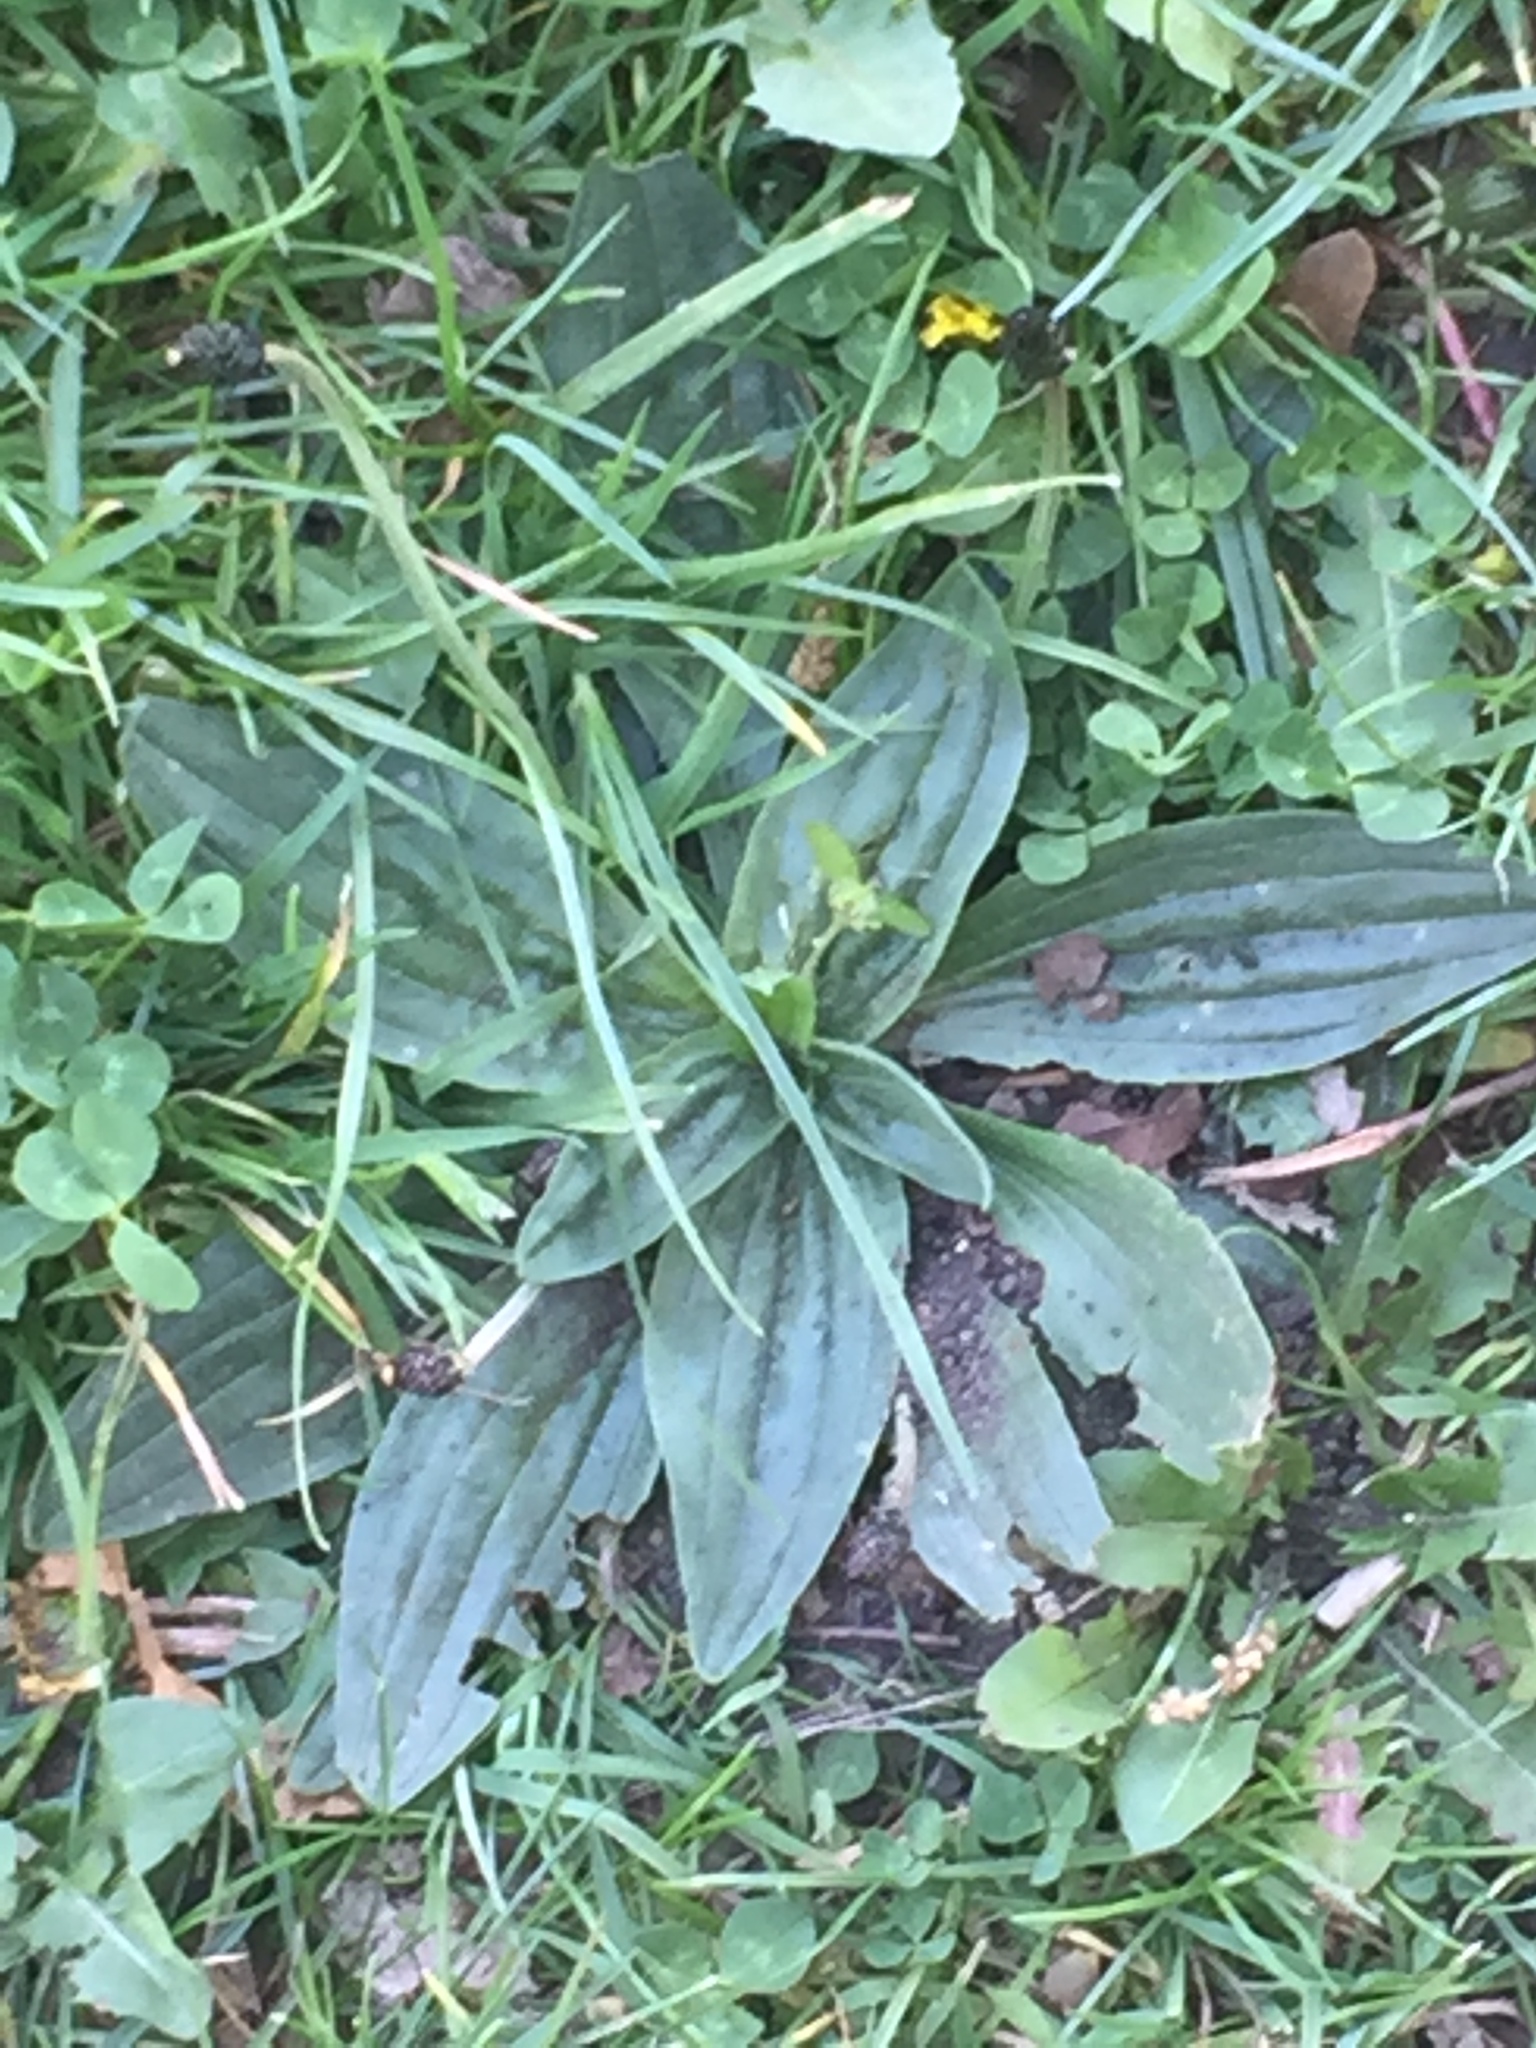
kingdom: Plantae
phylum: Tracheophyta
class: Magnoliopsida
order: Lamiales
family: Plantaginaceae
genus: Plantago
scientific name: Plantago lanceolata
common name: Ribwort plantain
